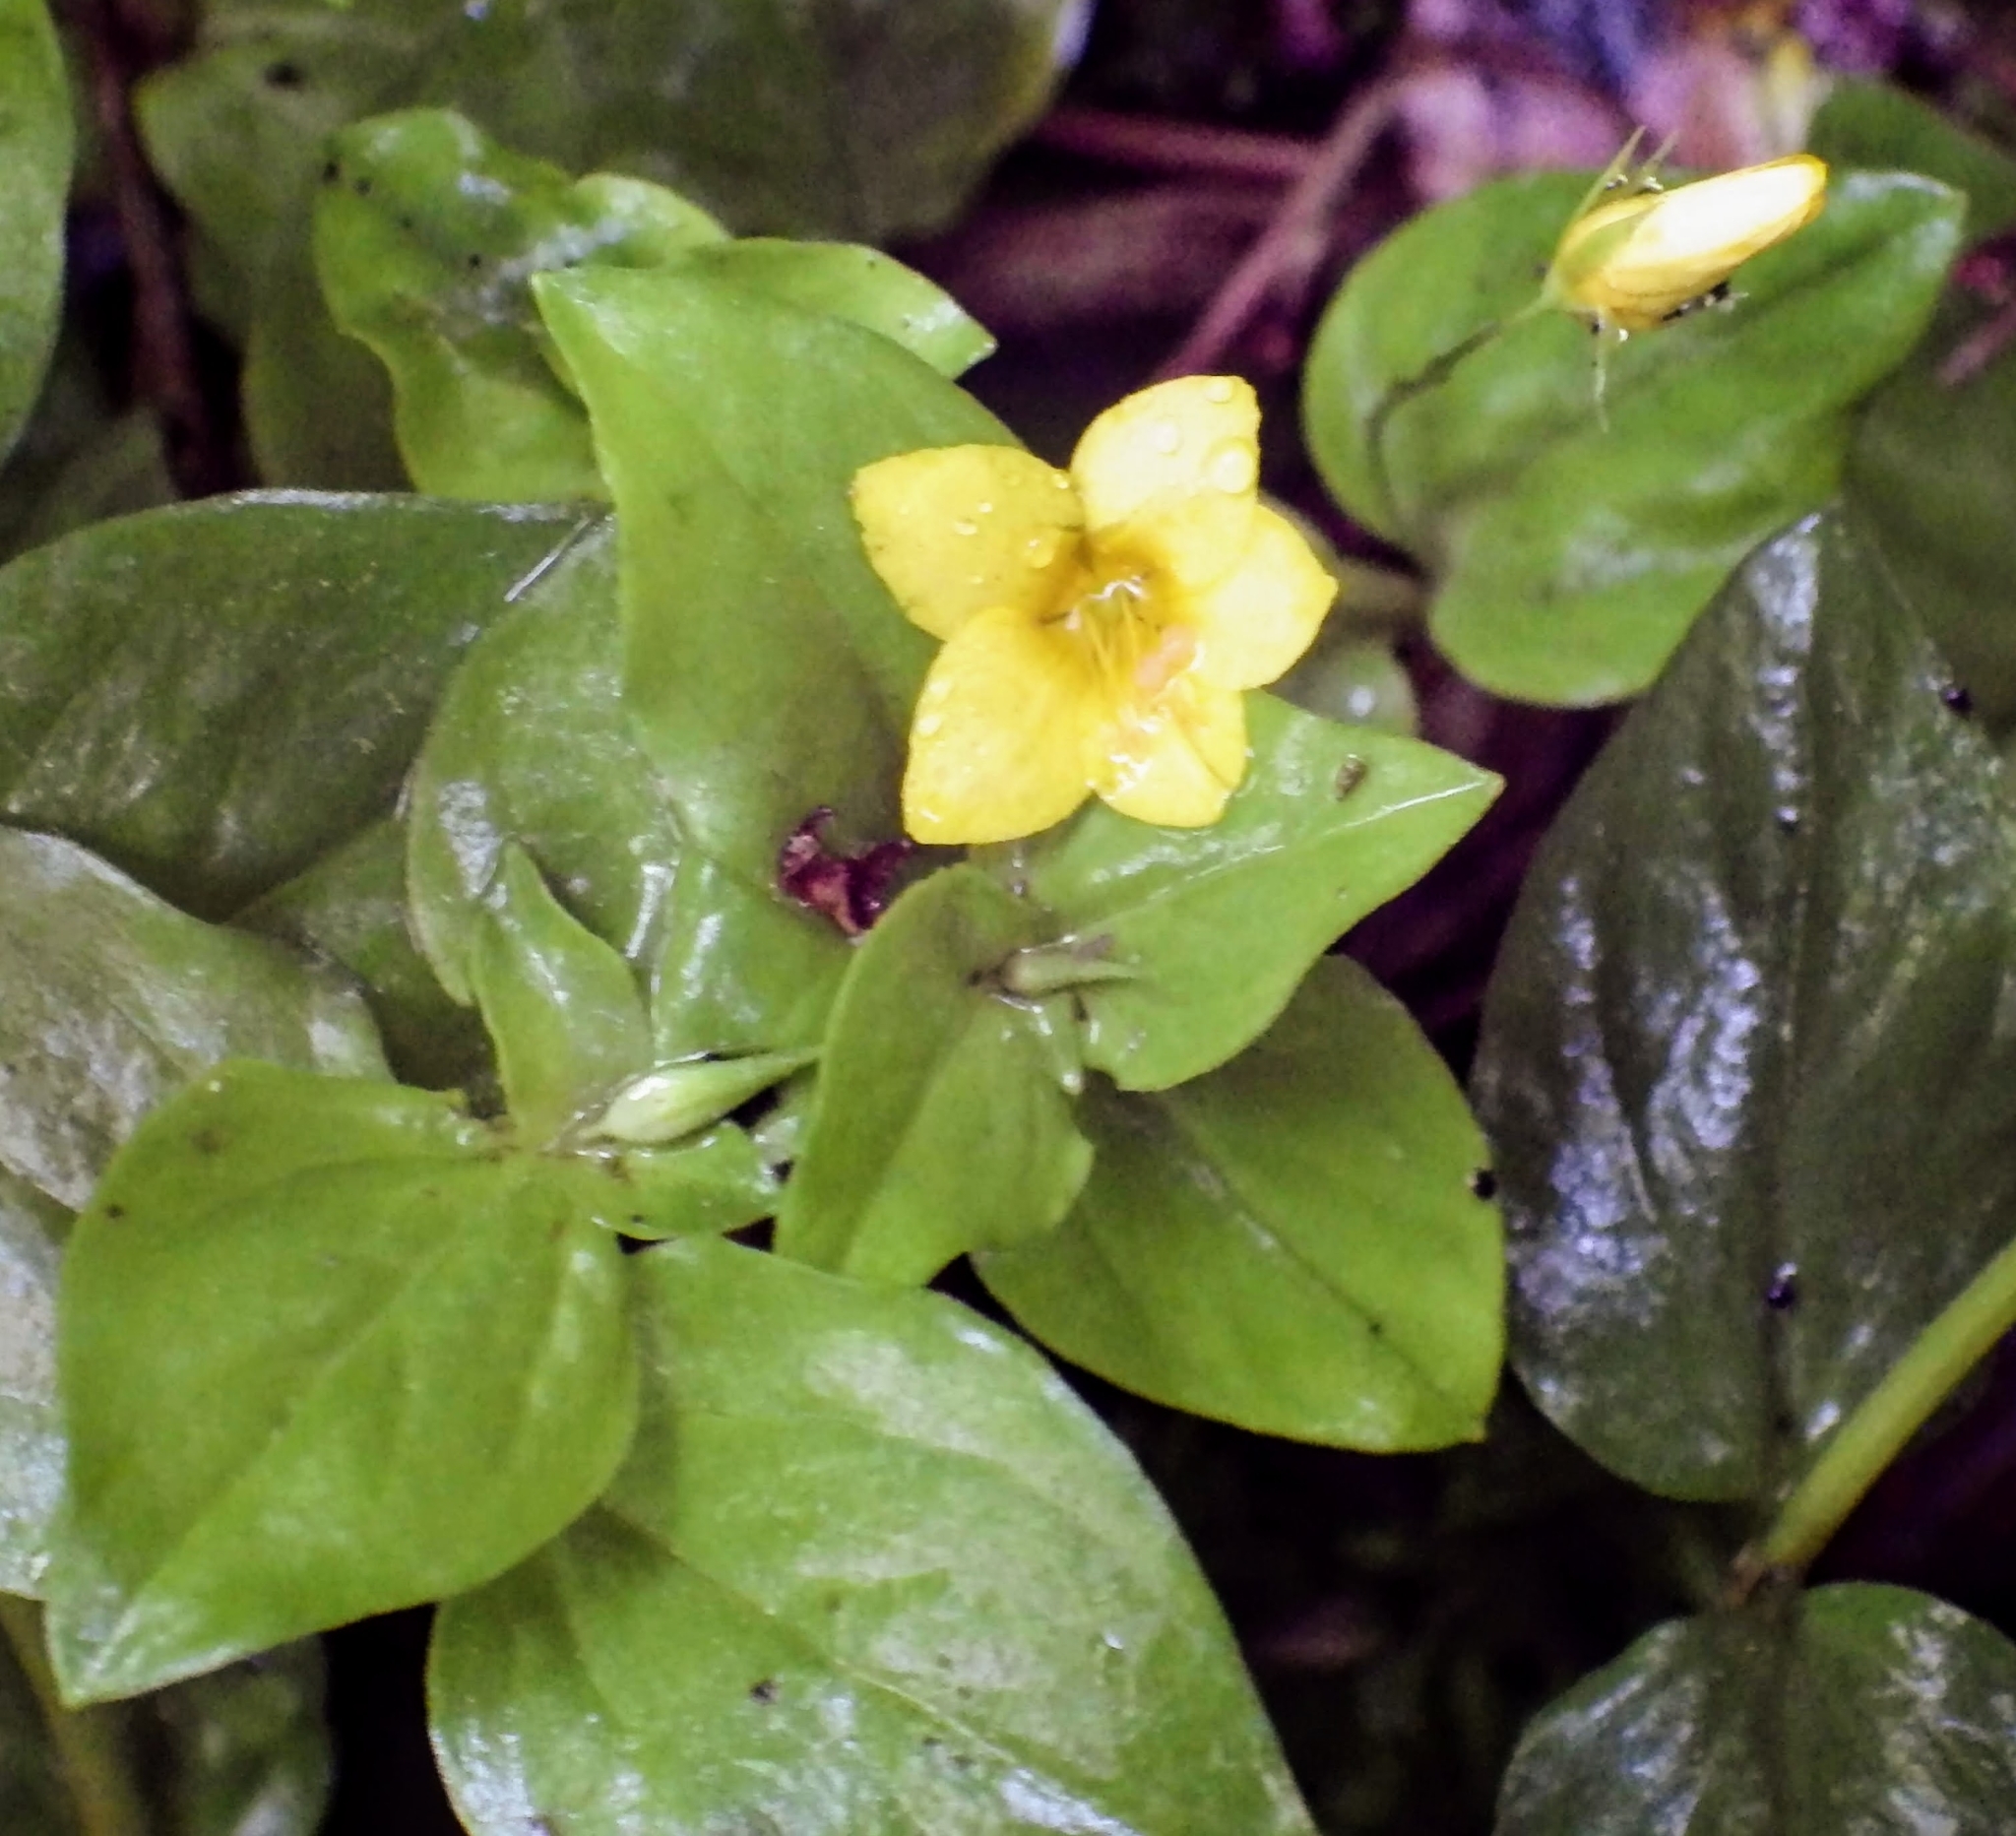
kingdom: Plantae
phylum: Tracheophyta
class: Magnoliopsida
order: Ericales
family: Primulaceae
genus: Lysimachia
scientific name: Lysimachia nemorum
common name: Yellow pimpernel
